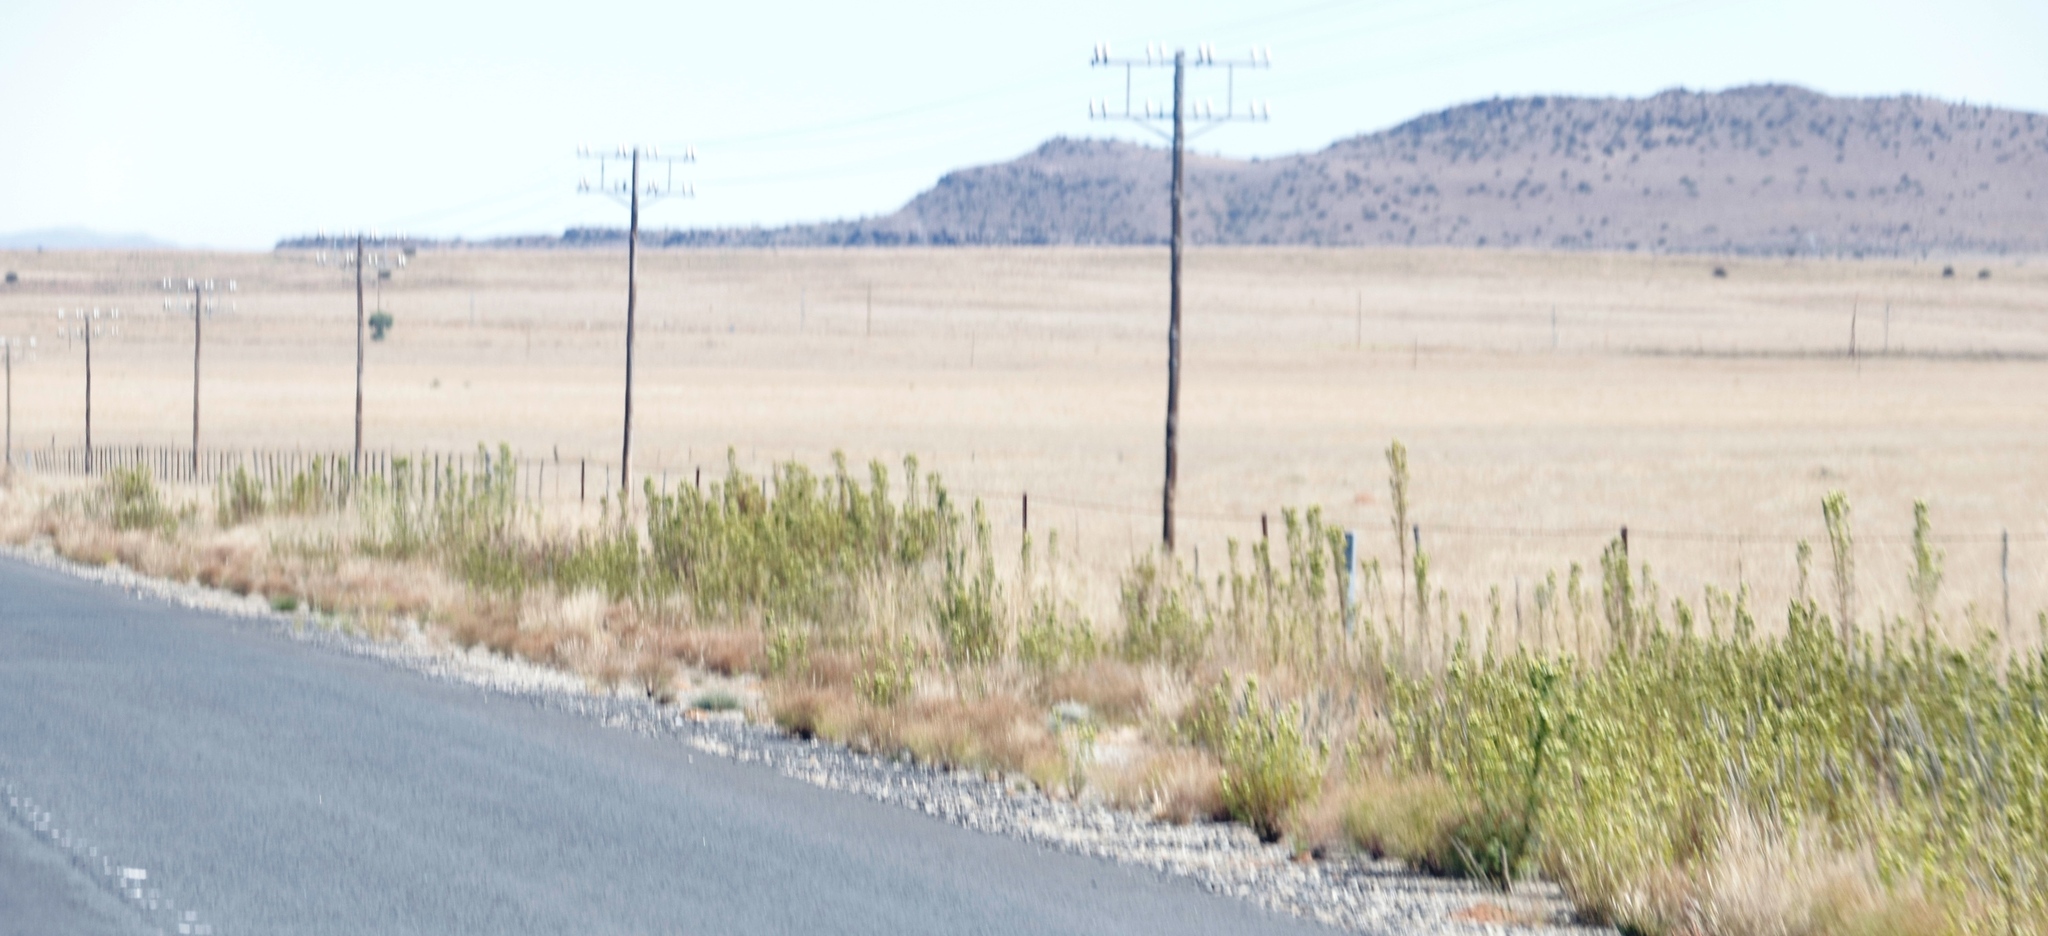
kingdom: Plantae
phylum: Tracheophyta
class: Magnoliopsida
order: Asterales
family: Asteraceae
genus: Tagetes
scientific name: Tagetes minuta
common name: Muster john henry
